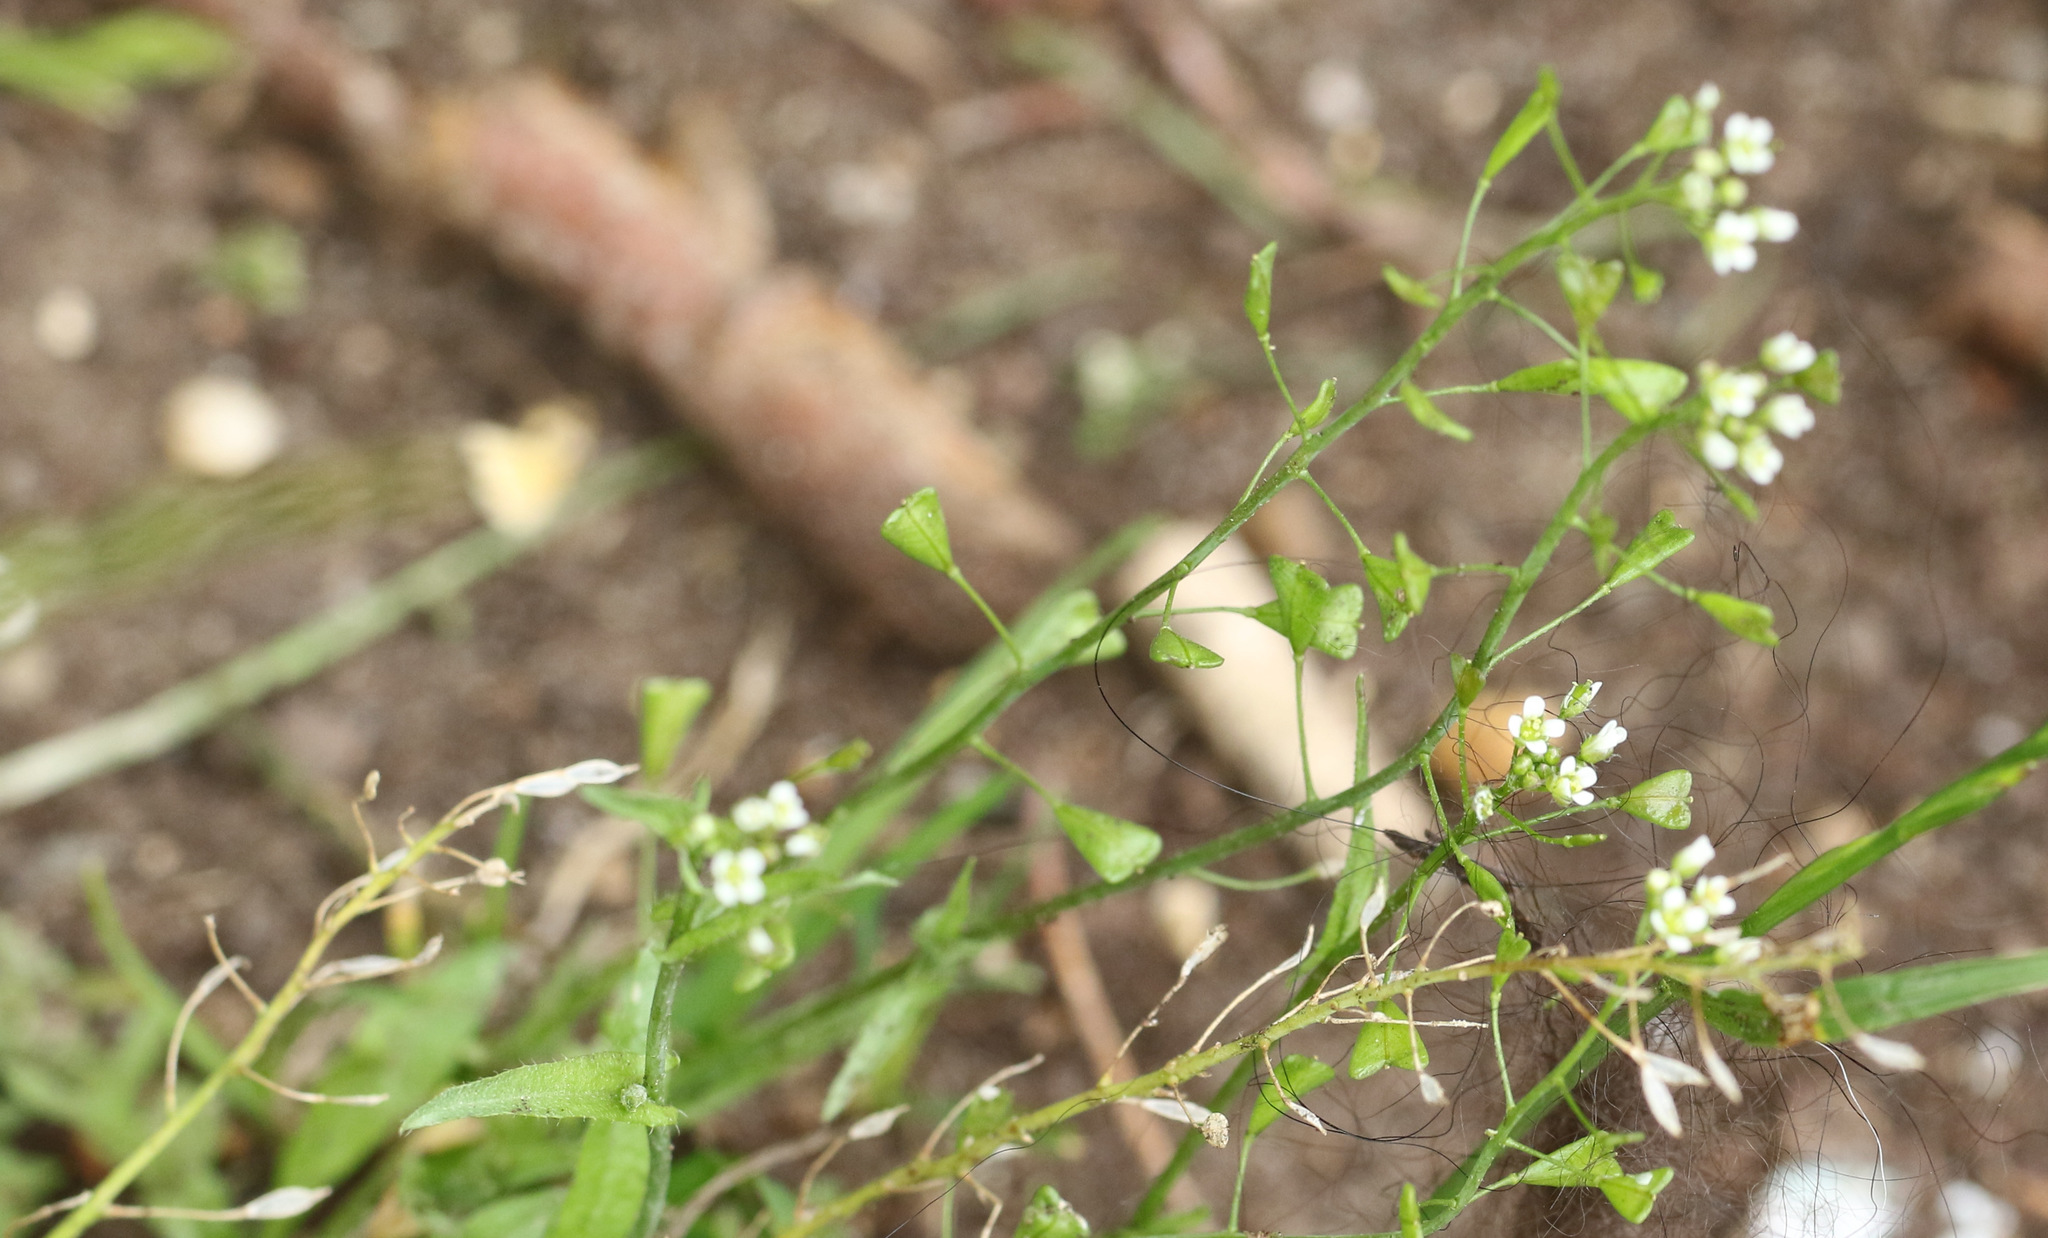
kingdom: Plantae
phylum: Tracheophyta
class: Magnoliopsida
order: Brassicales
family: Brassicaceae
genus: Capsella
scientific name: Capsella bursa-pastoris
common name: Shepherd's purse
